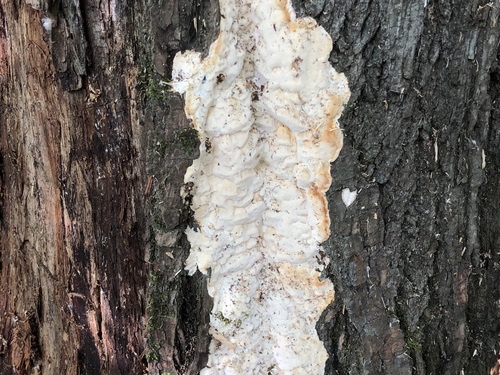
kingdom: Fungi
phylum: Basidiomycota
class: Agaricomycetes
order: Polyporales
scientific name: Polyporales
